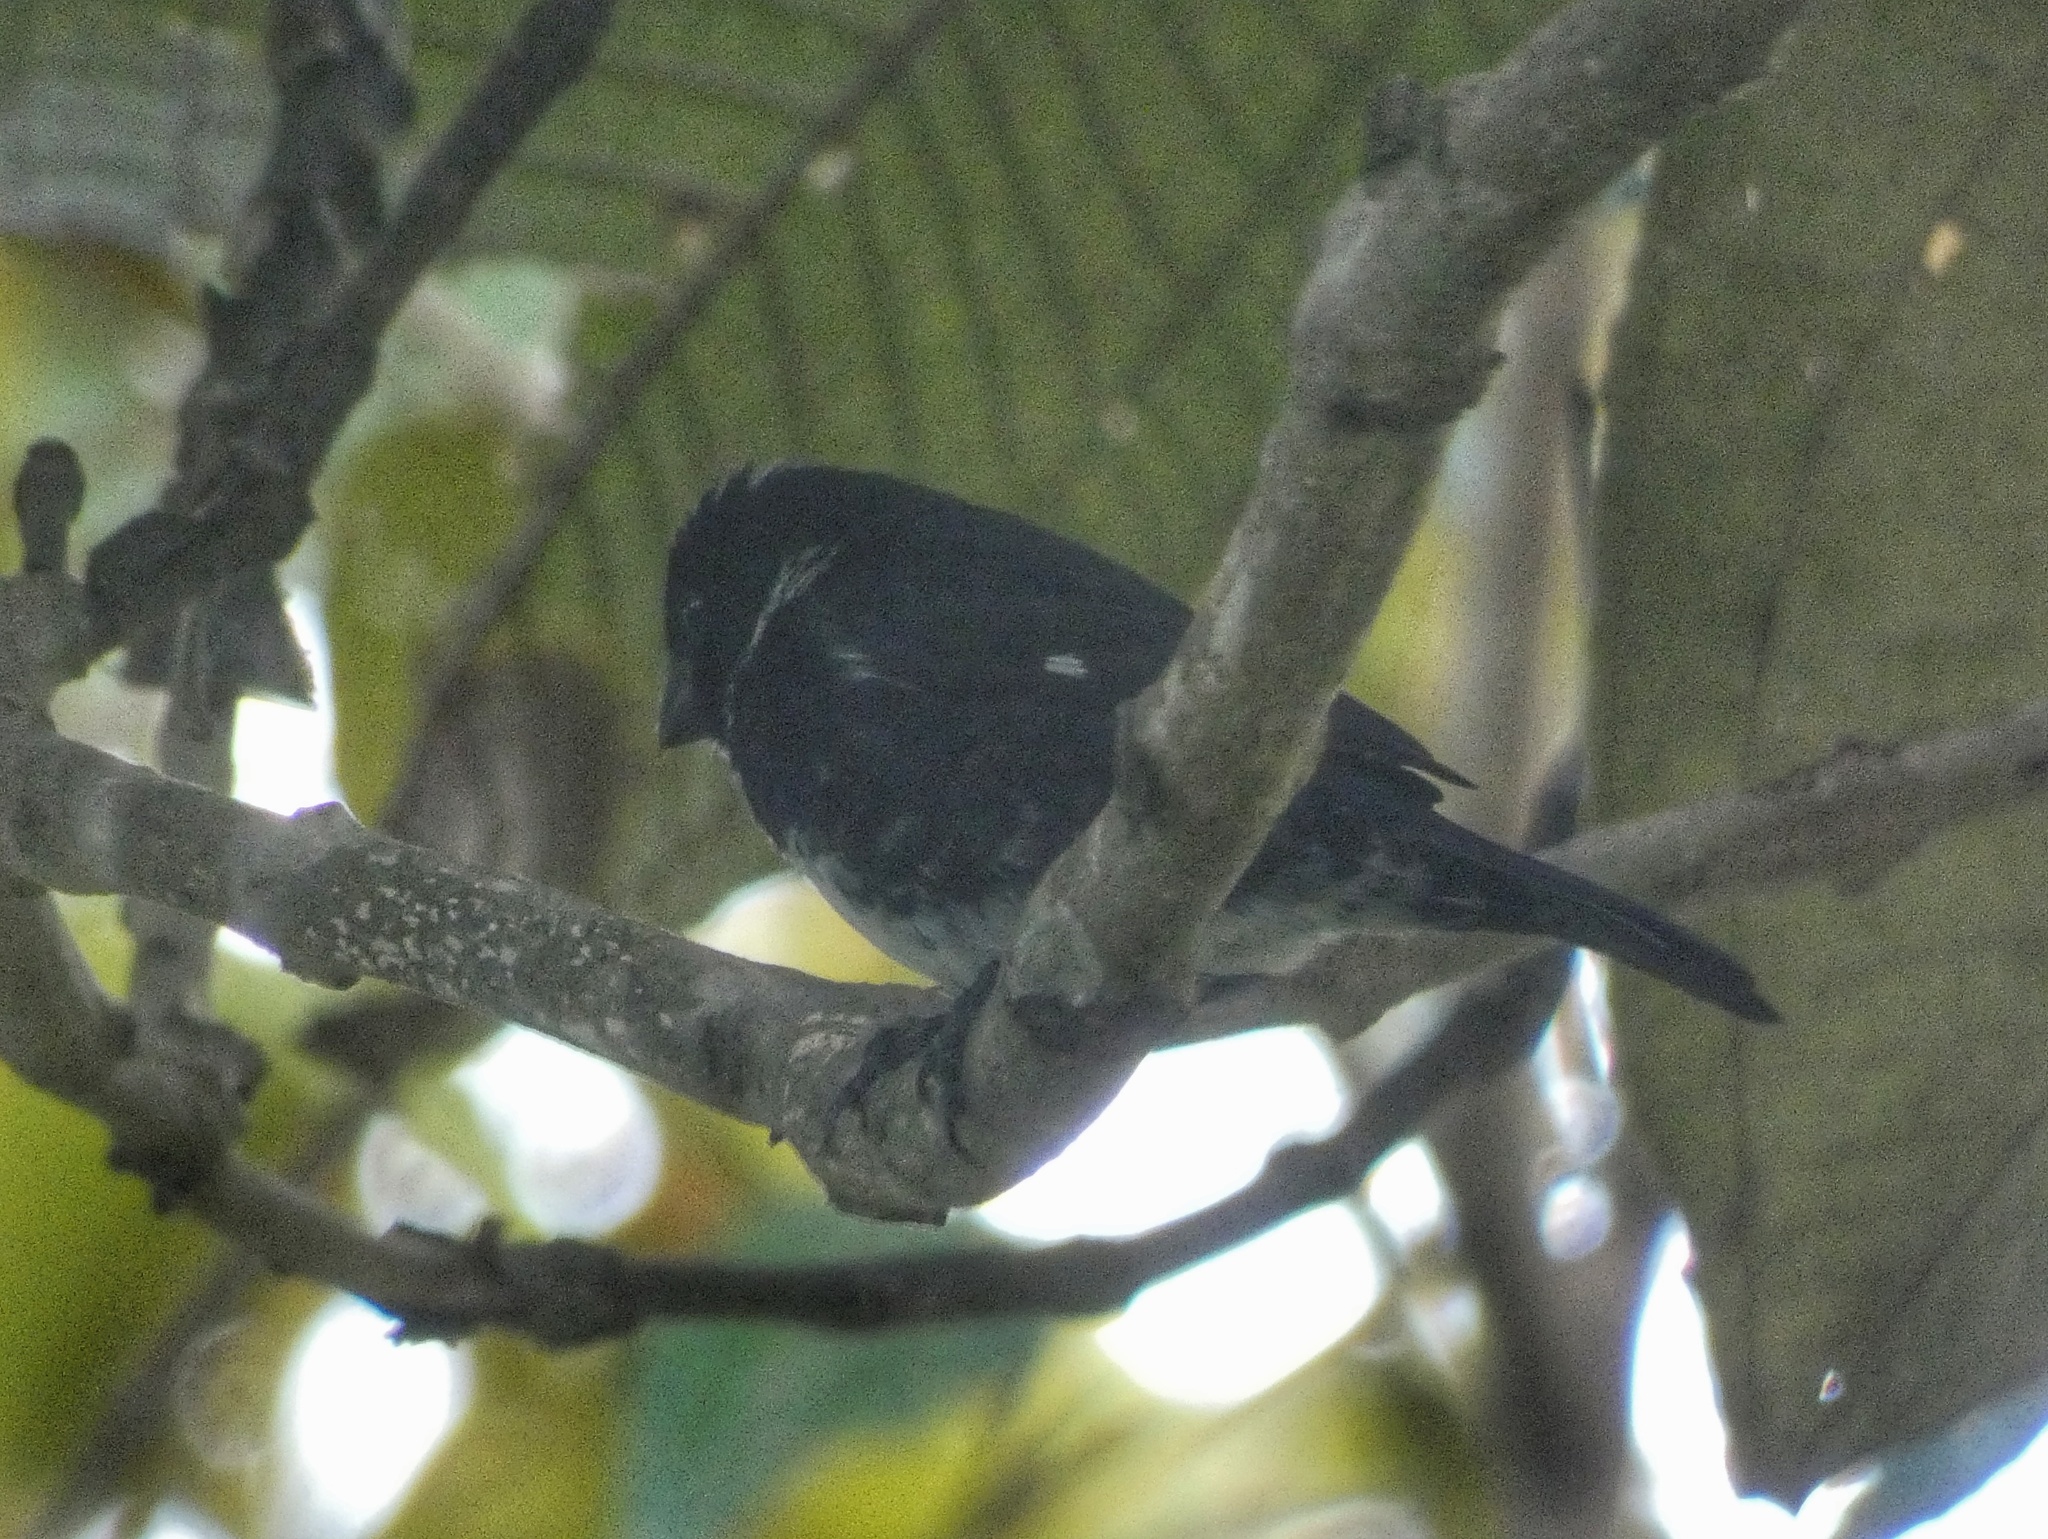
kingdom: Animalia
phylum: Chordata
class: Aves
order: Passeriformes
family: Thraupidae
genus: Sporophila
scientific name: Sporophila corvina
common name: Variable seedeater
